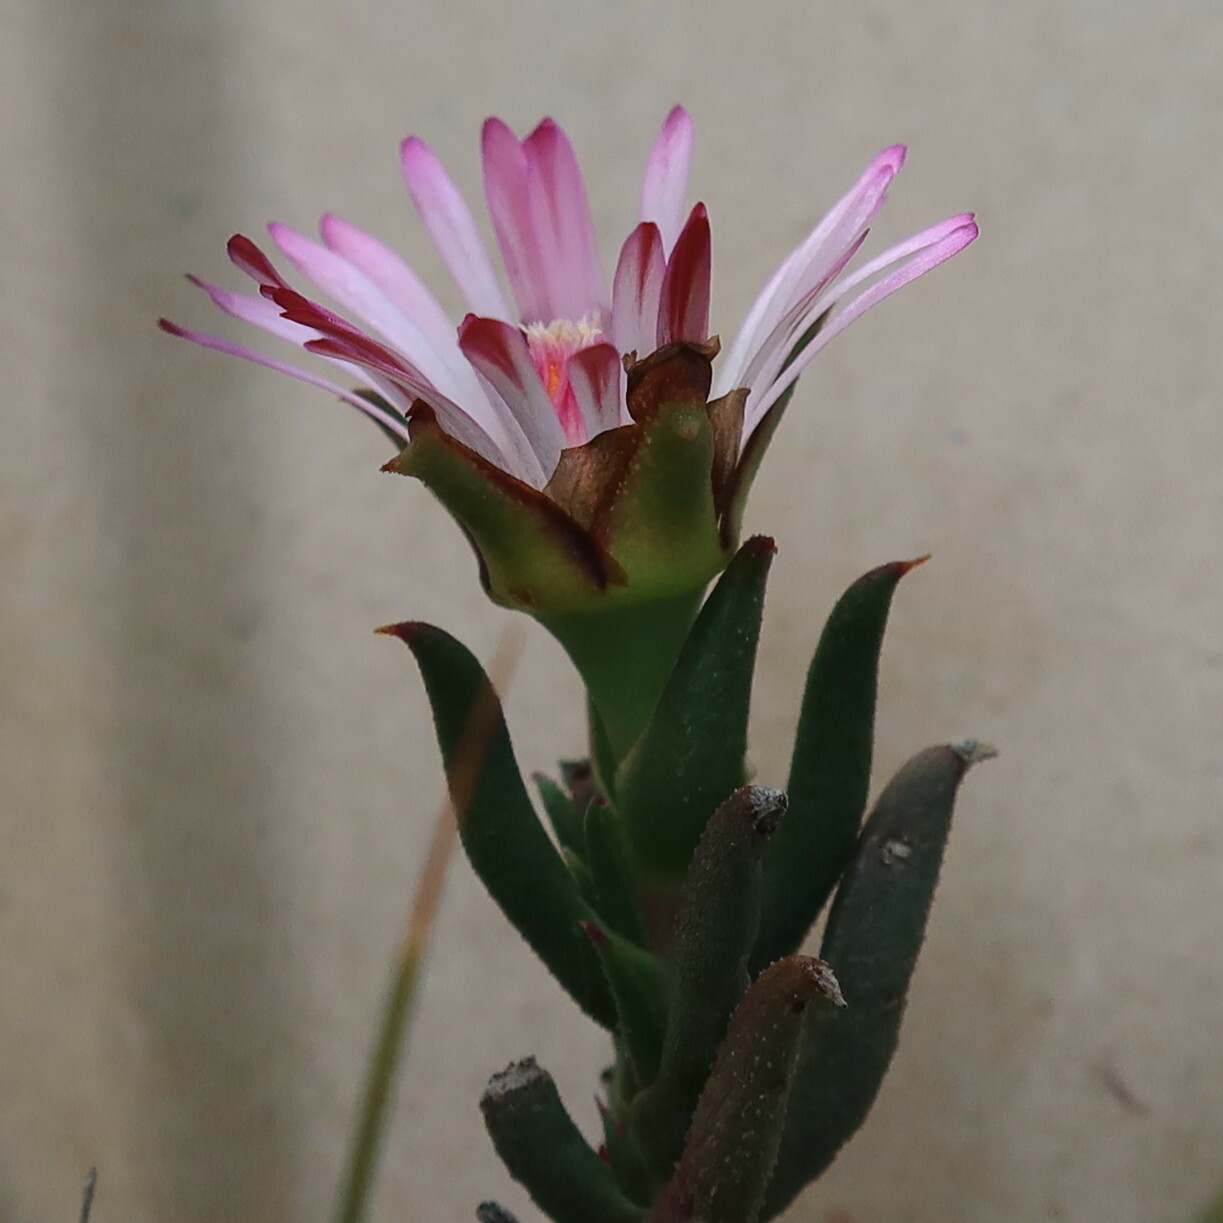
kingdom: Plantae
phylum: Tracheophyta
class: Magnoliopsida
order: Caryophyllales
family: Aizoaceae
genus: Lampranthus
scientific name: Lampranthus aduncus
